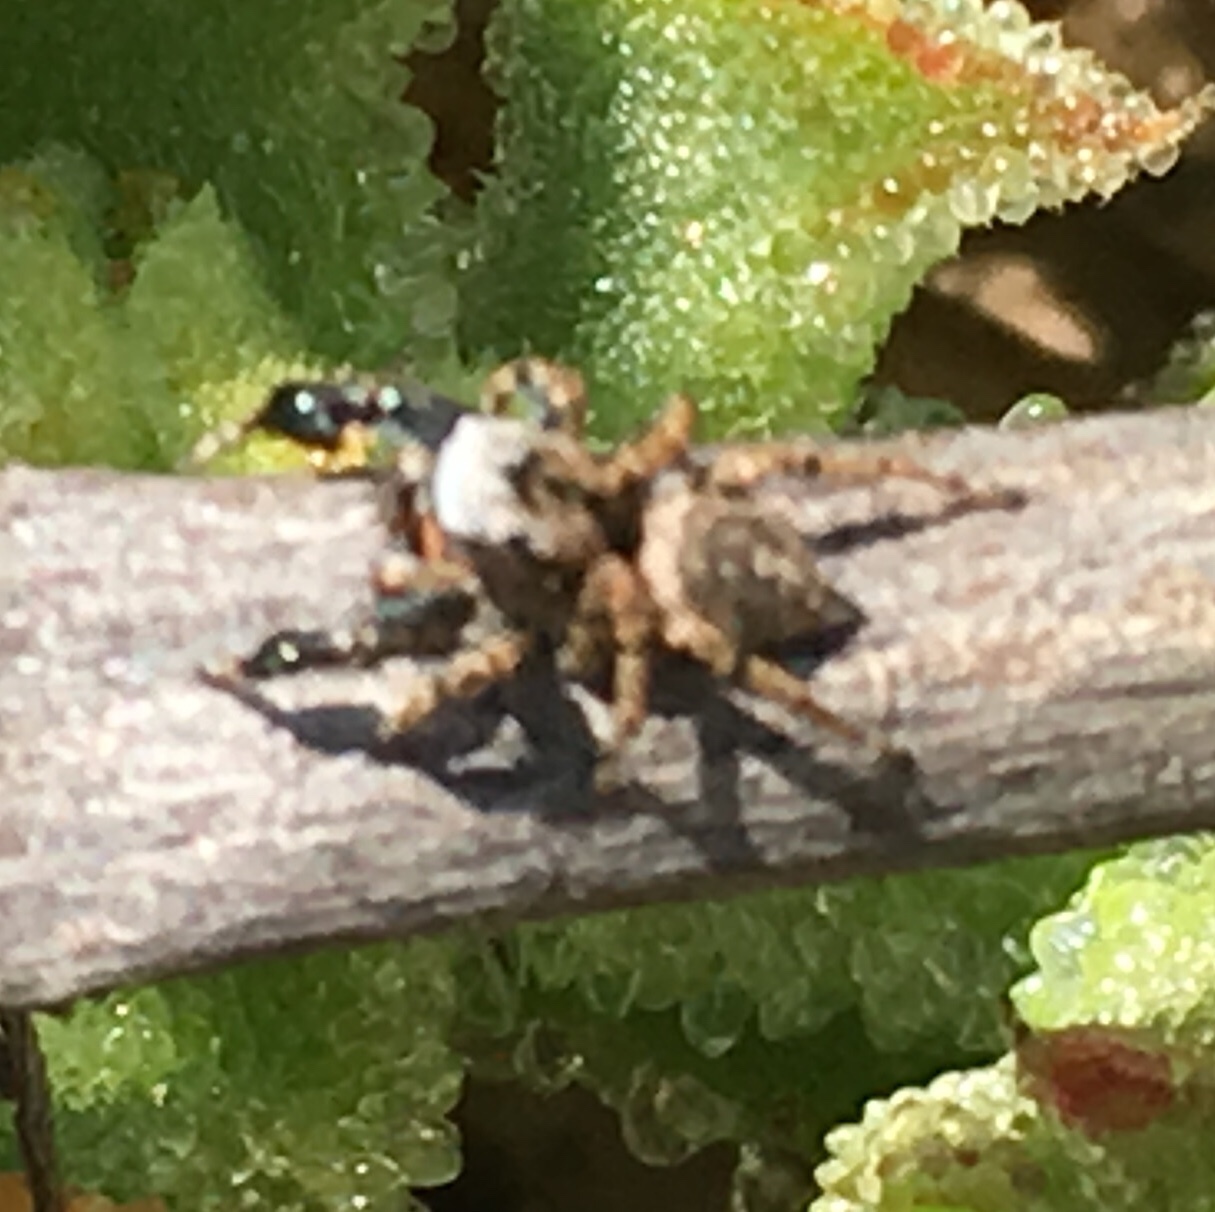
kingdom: Animalia
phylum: Arthropoda
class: Arachnida
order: Araneae
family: Salticidae
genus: Habronattus
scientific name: Habronattus oregonensis
